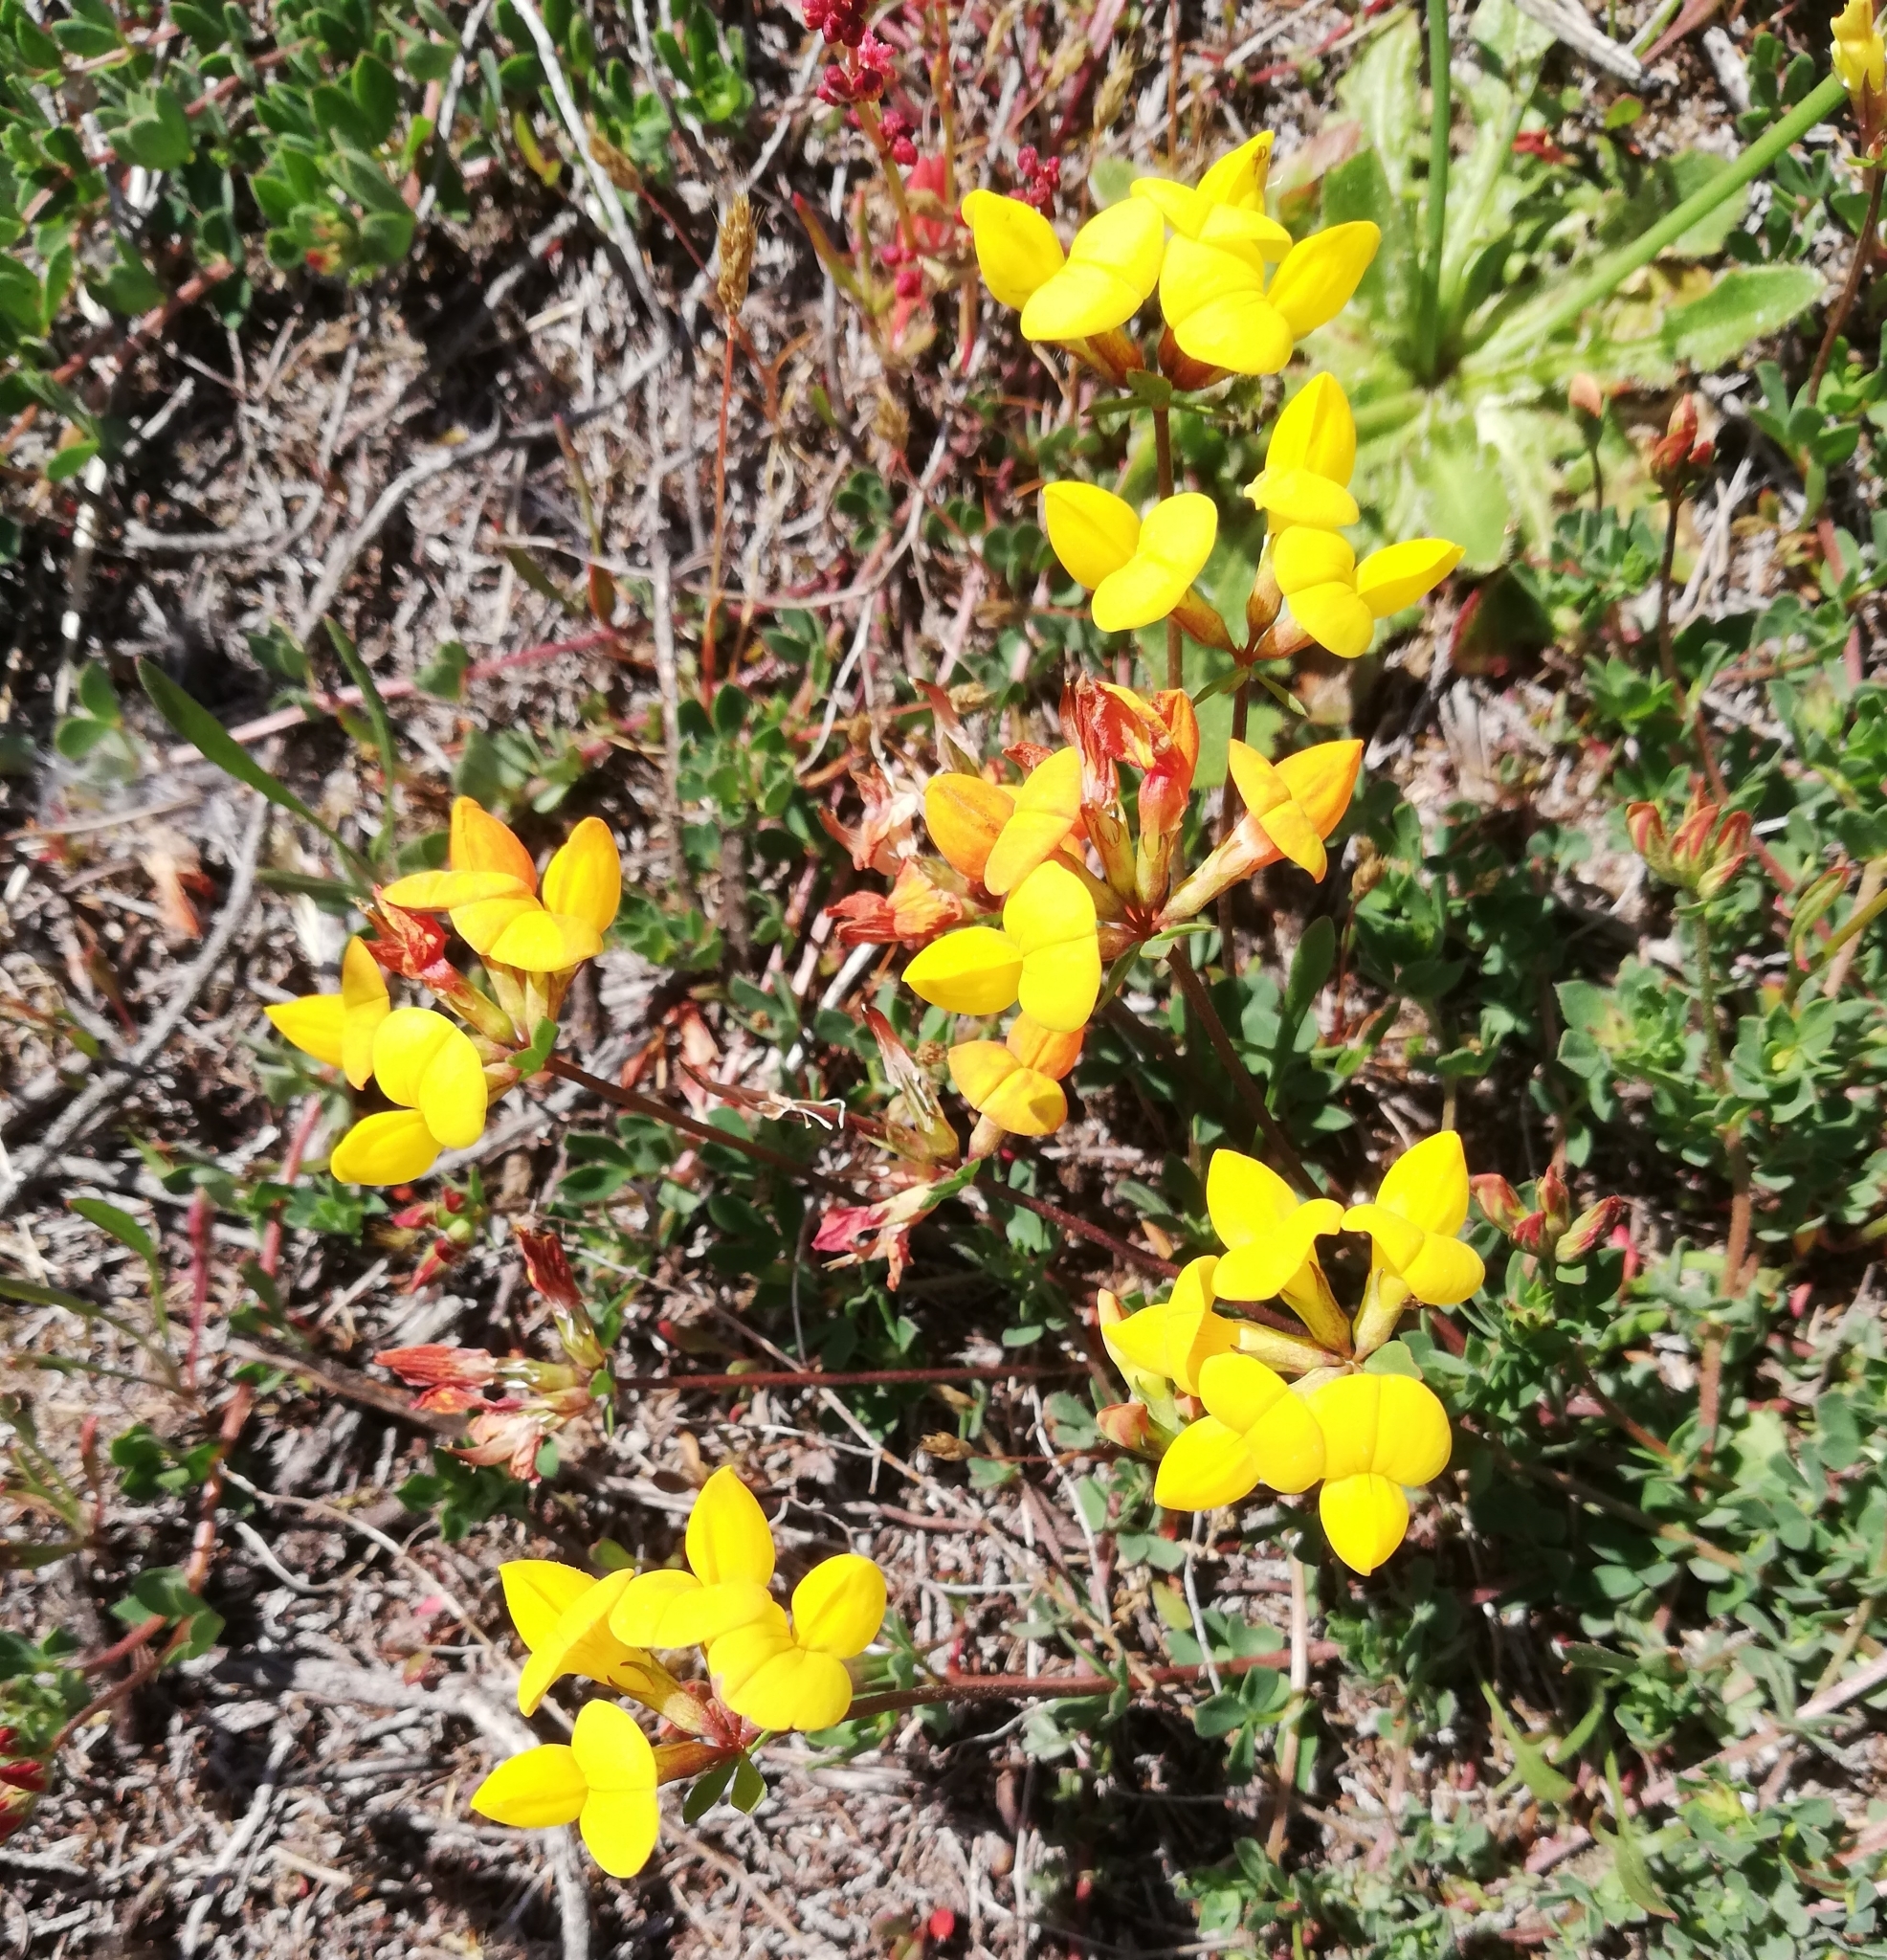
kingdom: Plantae
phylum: Tracheophyta
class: Magnoliopsida
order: Fabales
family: Fabaceae
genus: Lotus
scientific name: Lotus corniculatus
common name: Common bird's-foot-trefoil
